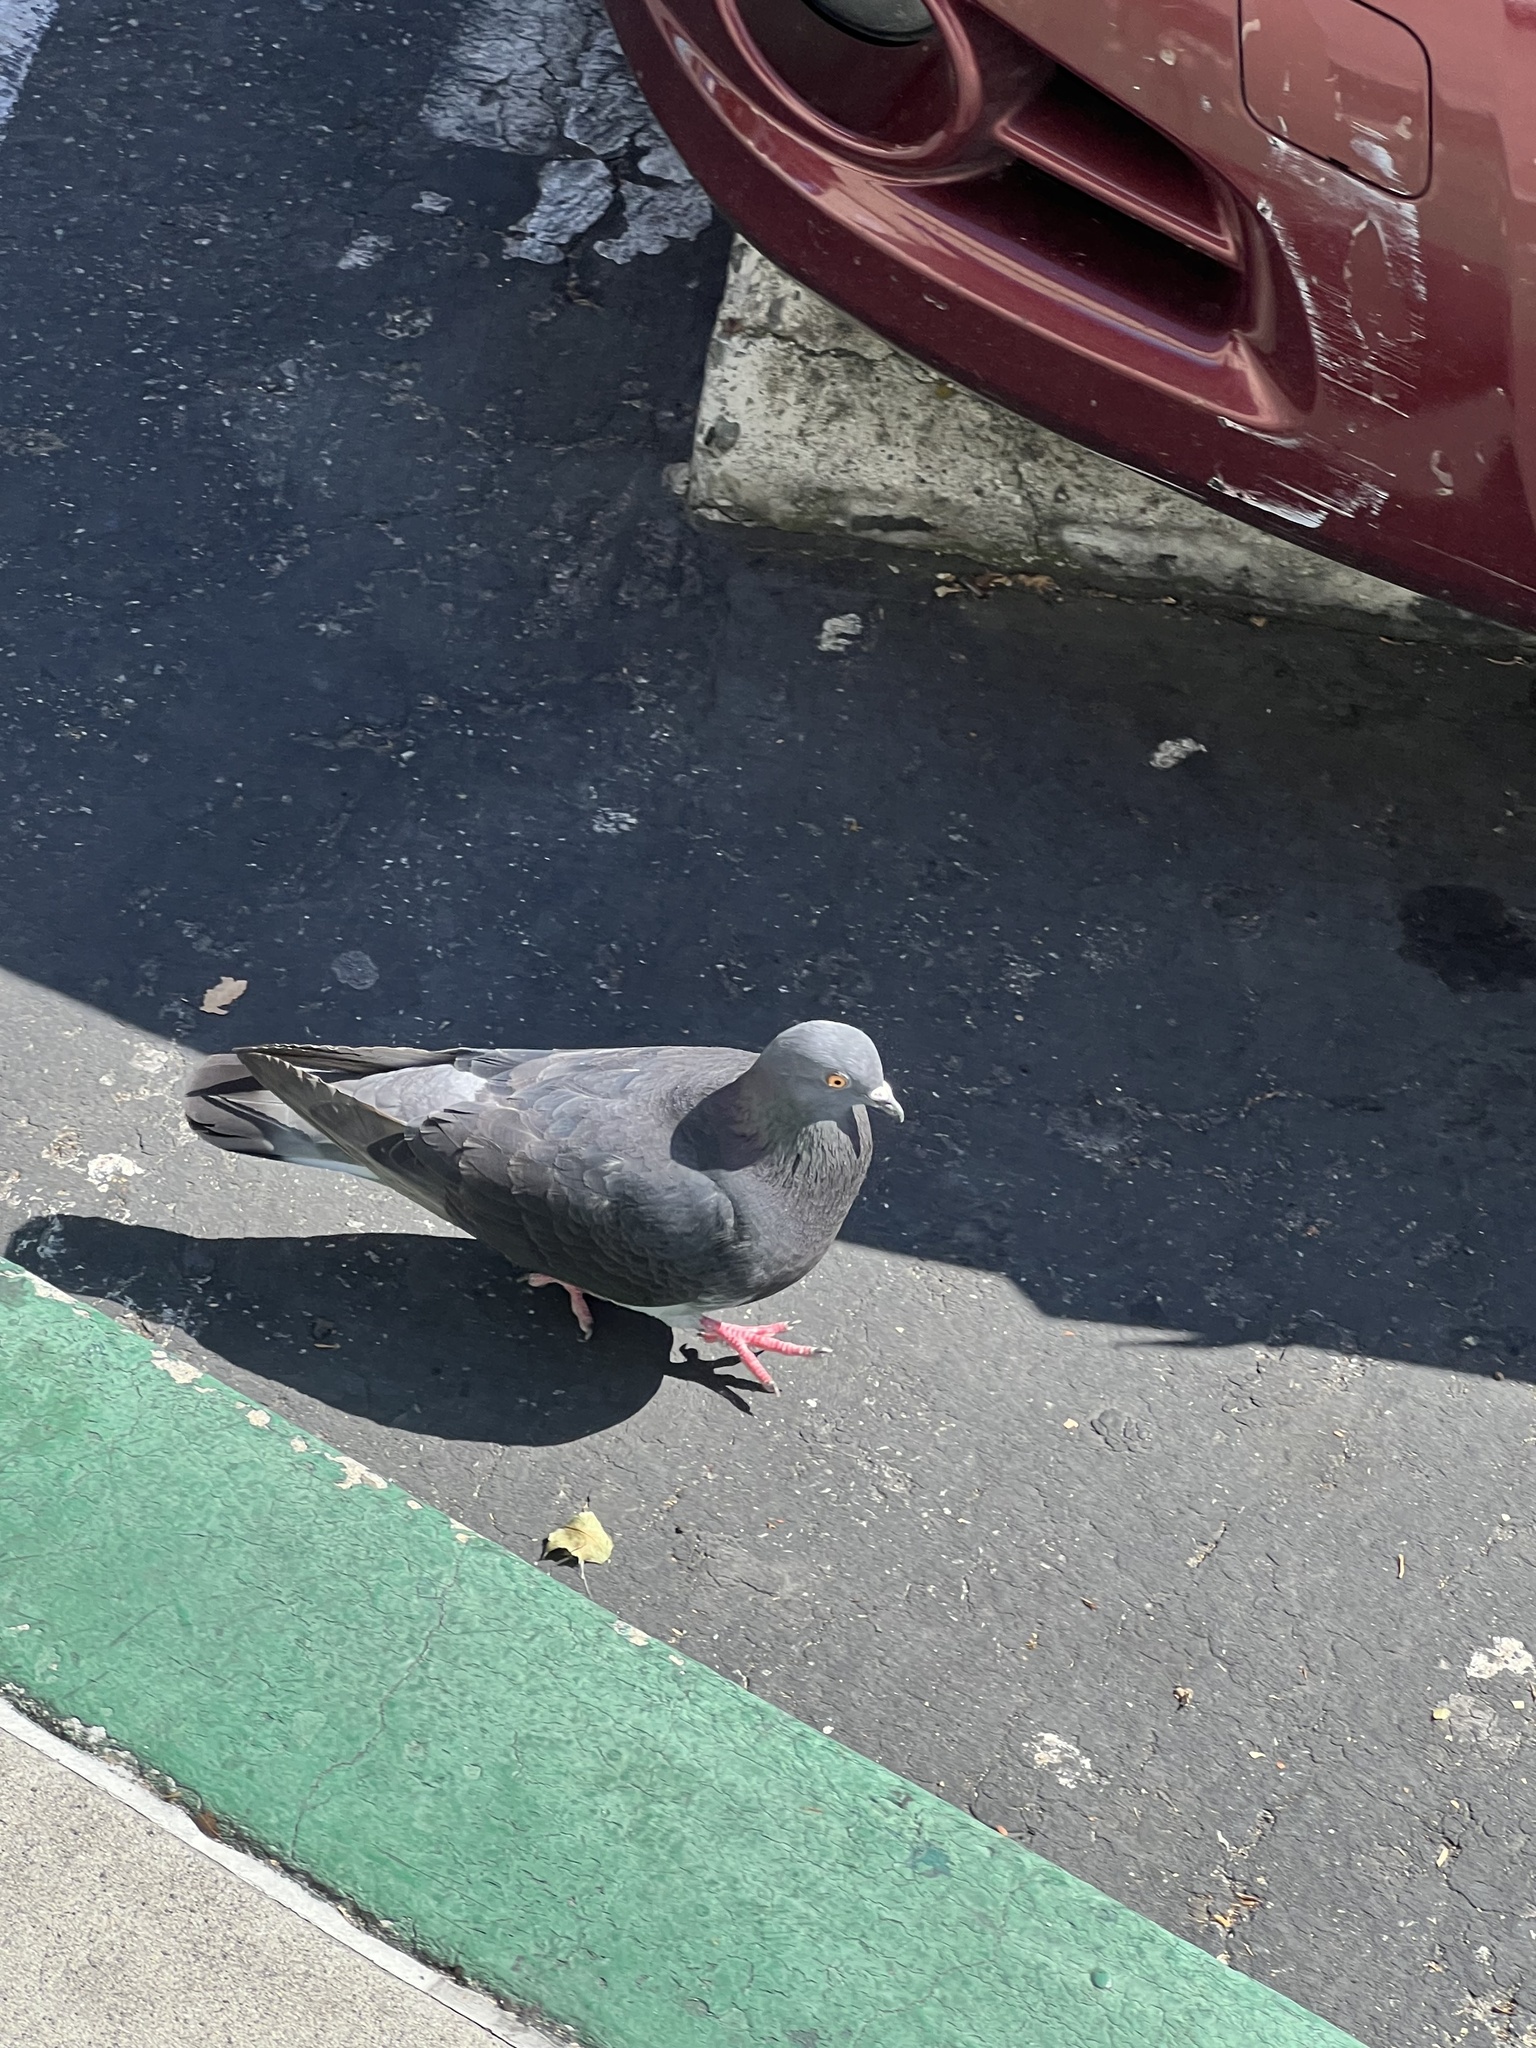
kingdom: Animalia
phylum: Chordata
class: Aves
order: Columbiformes
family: Columbidae
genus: Columba
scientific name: Columba livia
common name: Rock pigeon
